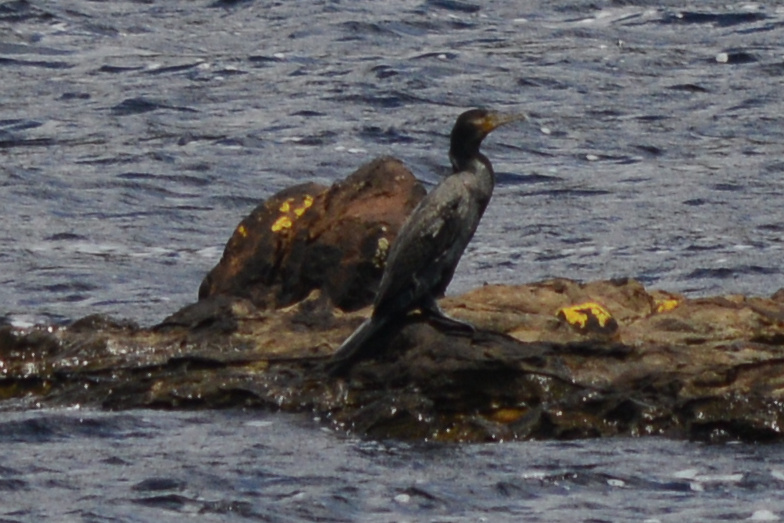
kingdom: Animalia
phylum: Chordata
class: Aves
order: Suliformes
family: Phalacrocoracidae
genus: Phalacrocorax
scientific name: Phalacrocorax carbo
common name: Great cormorant
